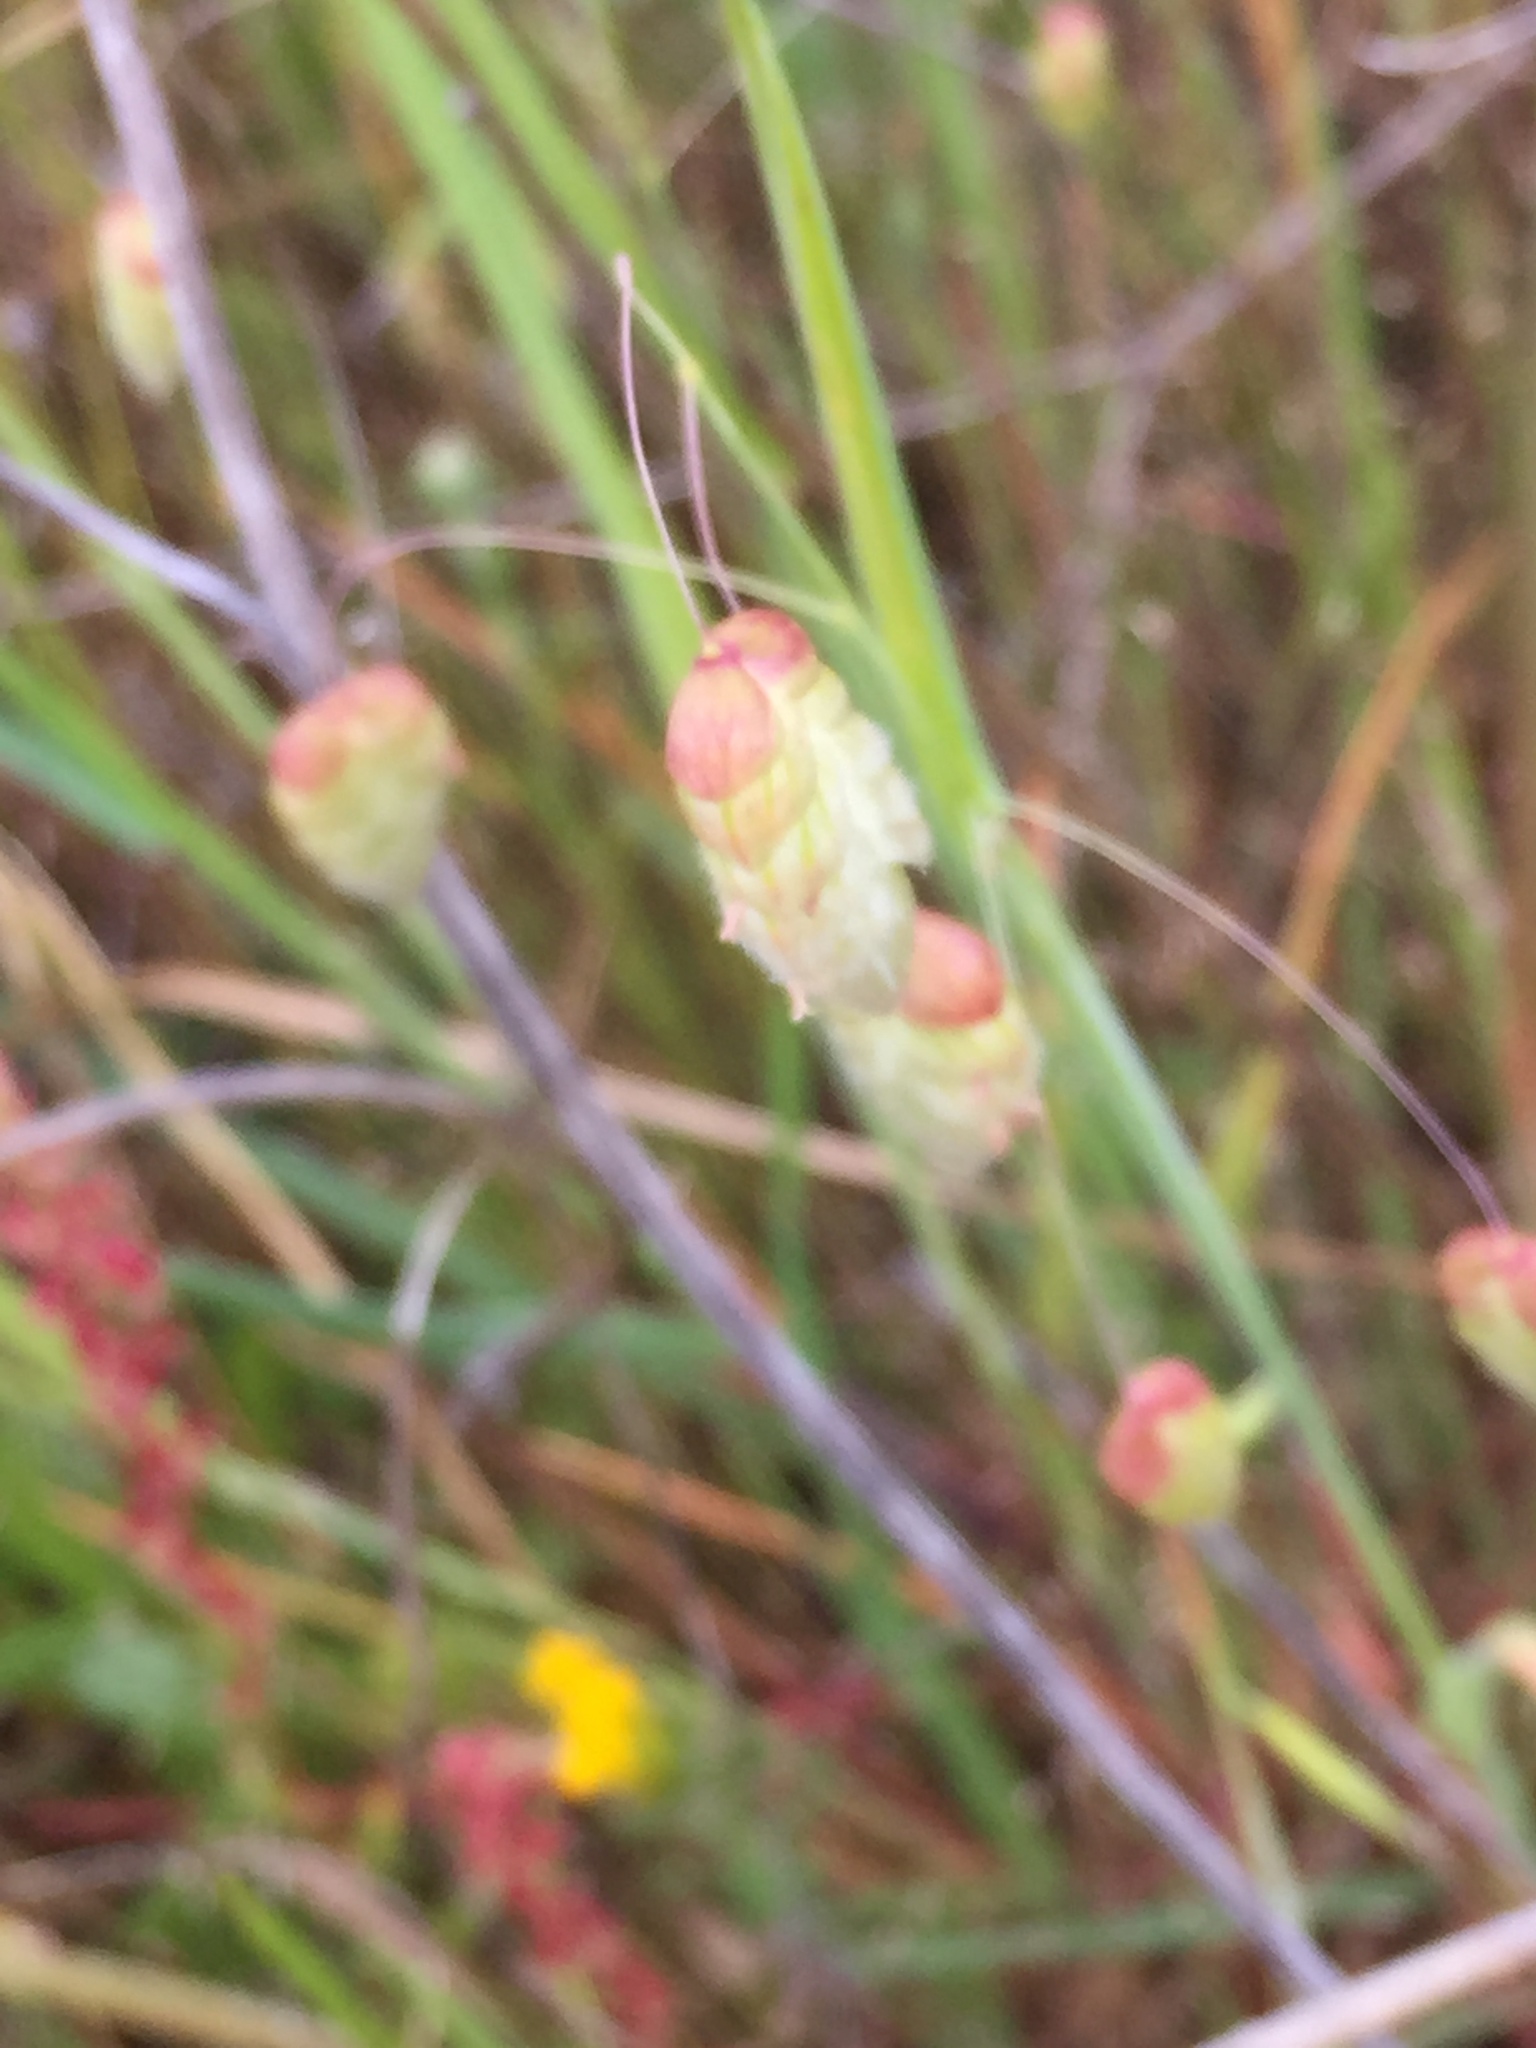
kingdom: Plantae
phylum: Tracheophyta
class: Liliopsida
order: Poales
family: Poaceae
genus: Briza
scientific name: Briza maxima
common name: Big quakinggrass
